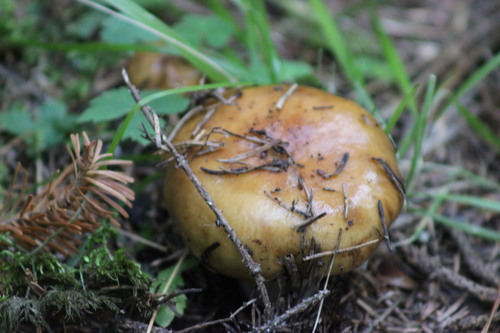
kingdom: Fungi
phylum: Basidiomycota
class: Agaricomycetes
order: Russulales
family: Russulaceae
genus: Russula
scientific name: Russula foetens
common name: Foetid russula
